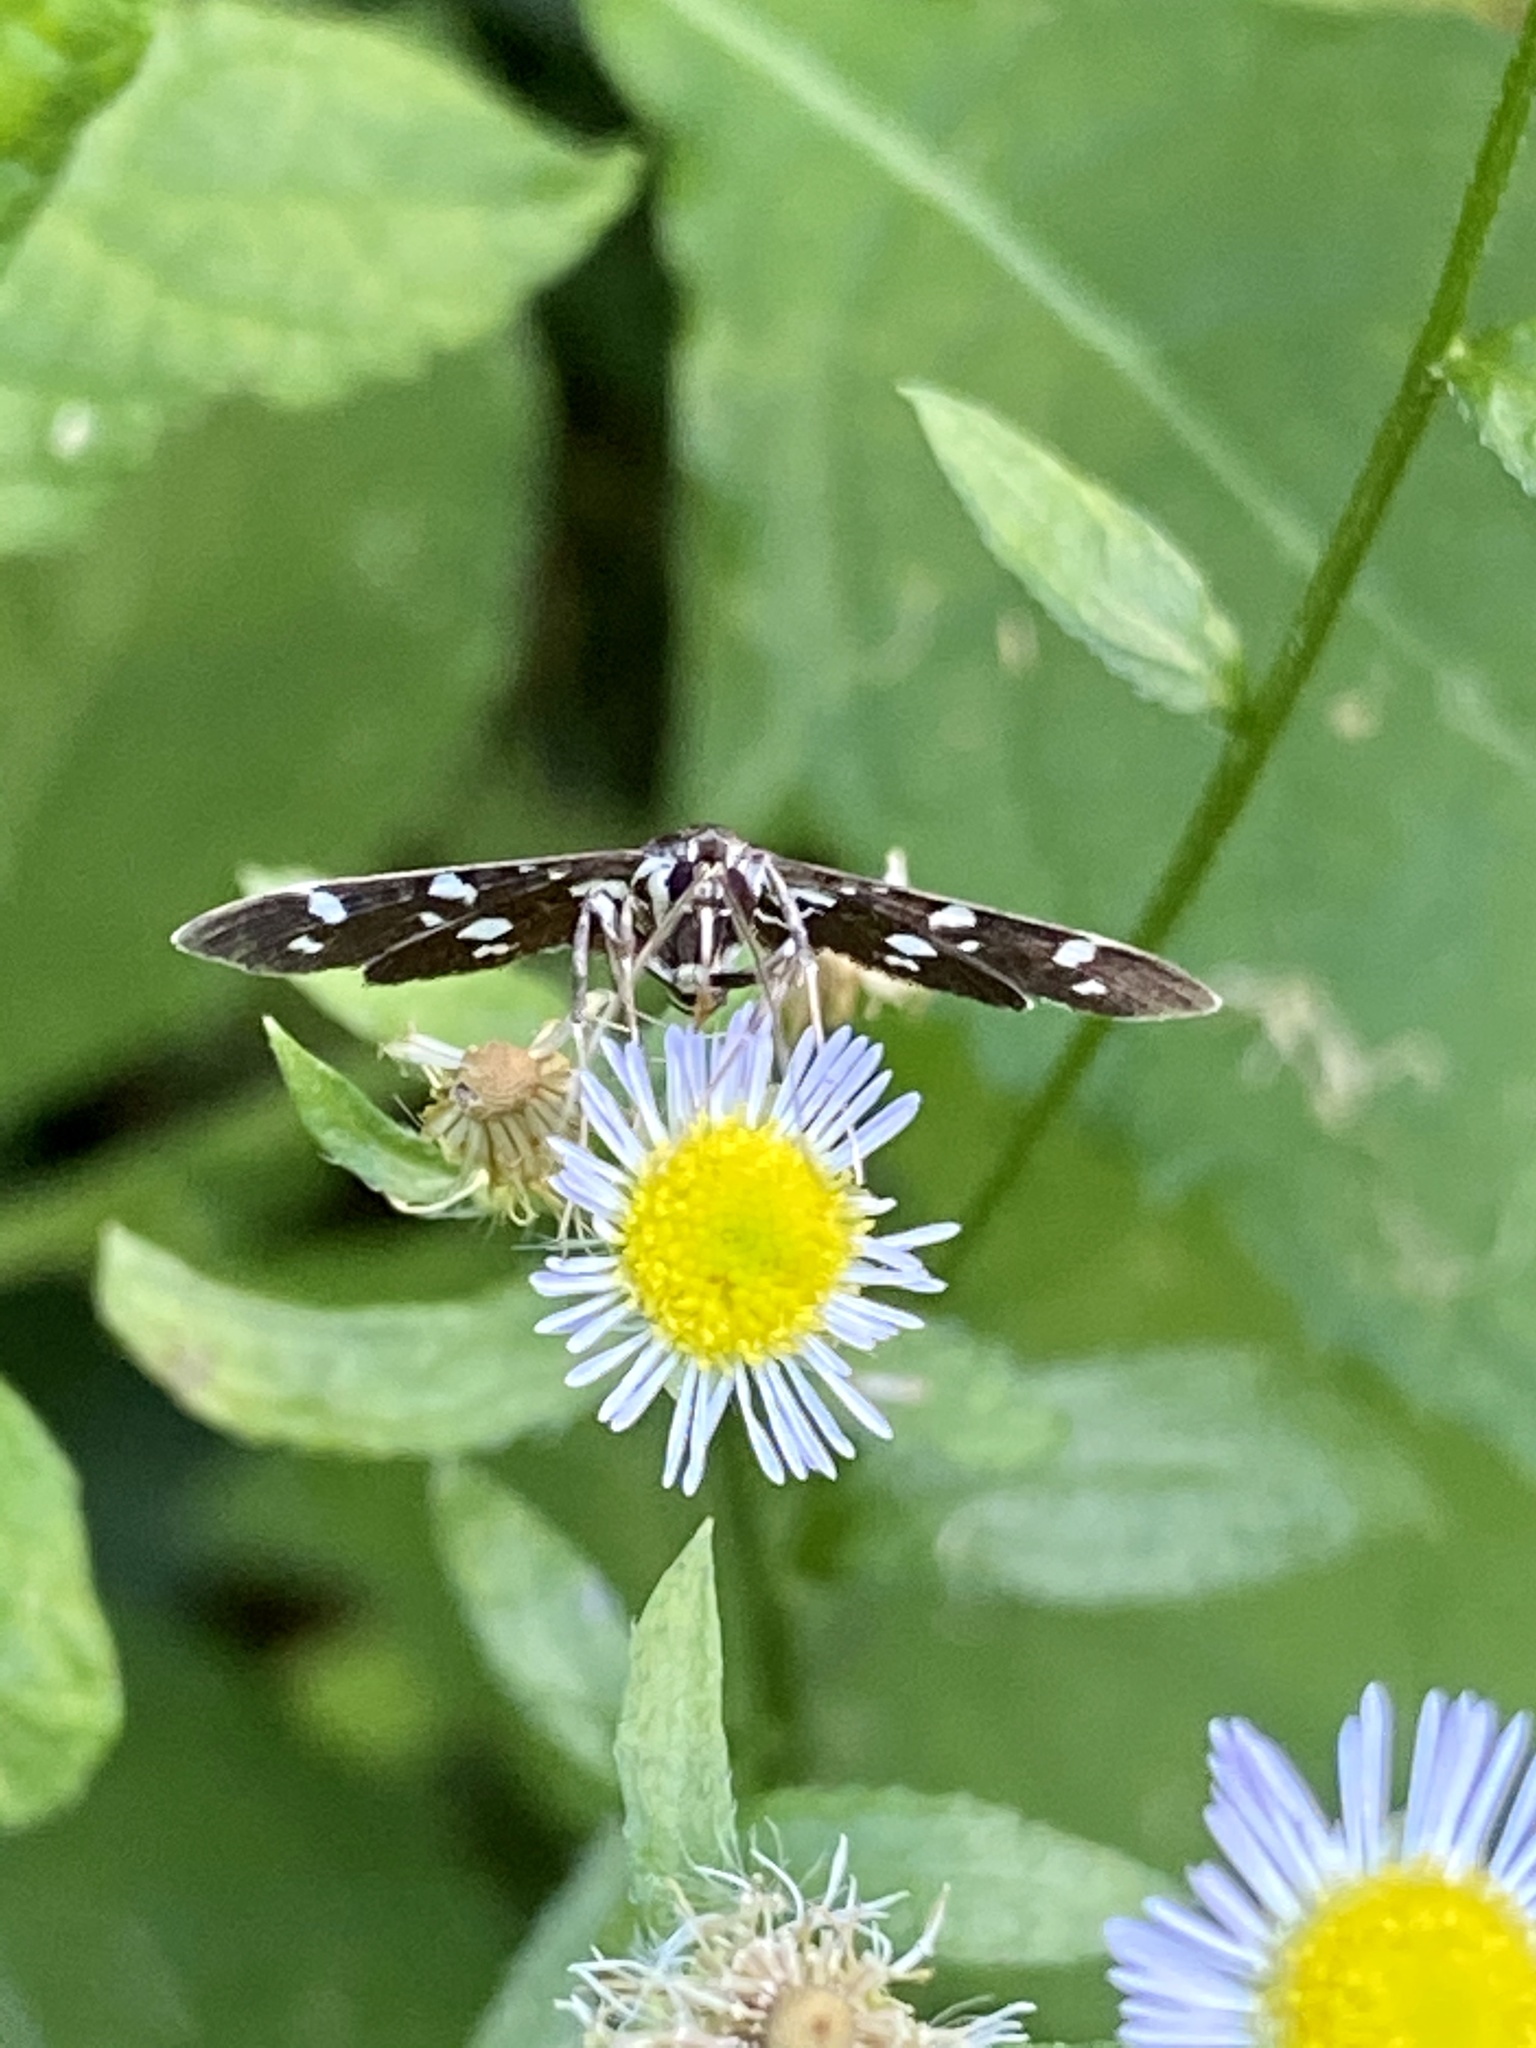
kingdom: Animalia
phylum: Arthropoda
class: Insecta
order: Lepidoptera
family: Crambidae
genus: Bocchoris
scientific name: Bocchoris inspersalis
